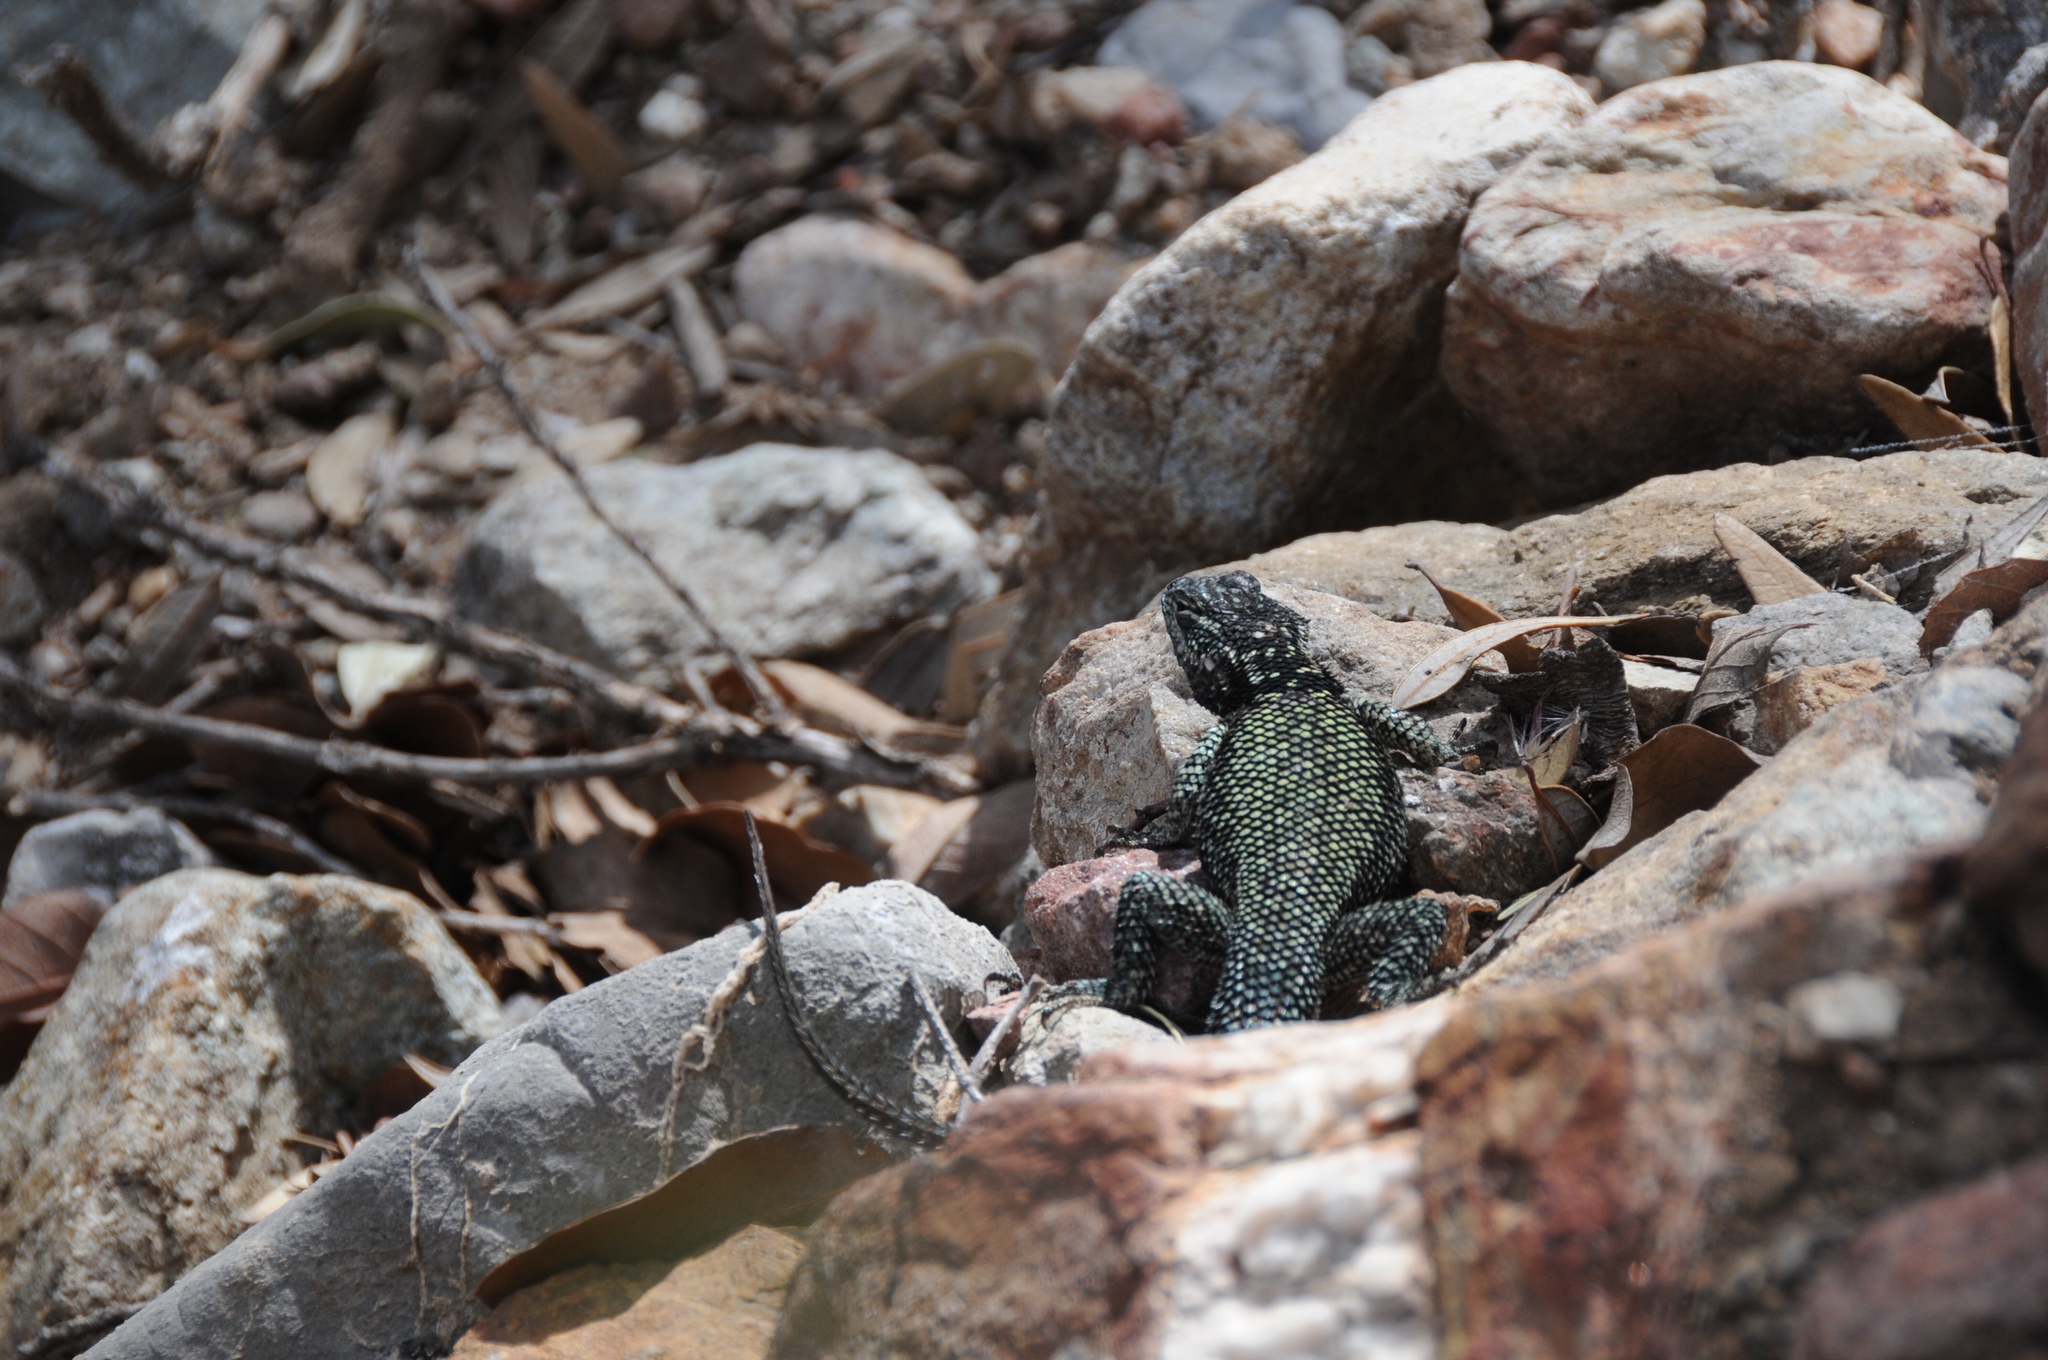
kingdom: Animalia
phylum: Chordata
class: Squamata
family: Phrynosomatidae
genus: Sceloporus
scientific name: Sceloporus jarrovii
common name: Yarrow's spiny lizard
